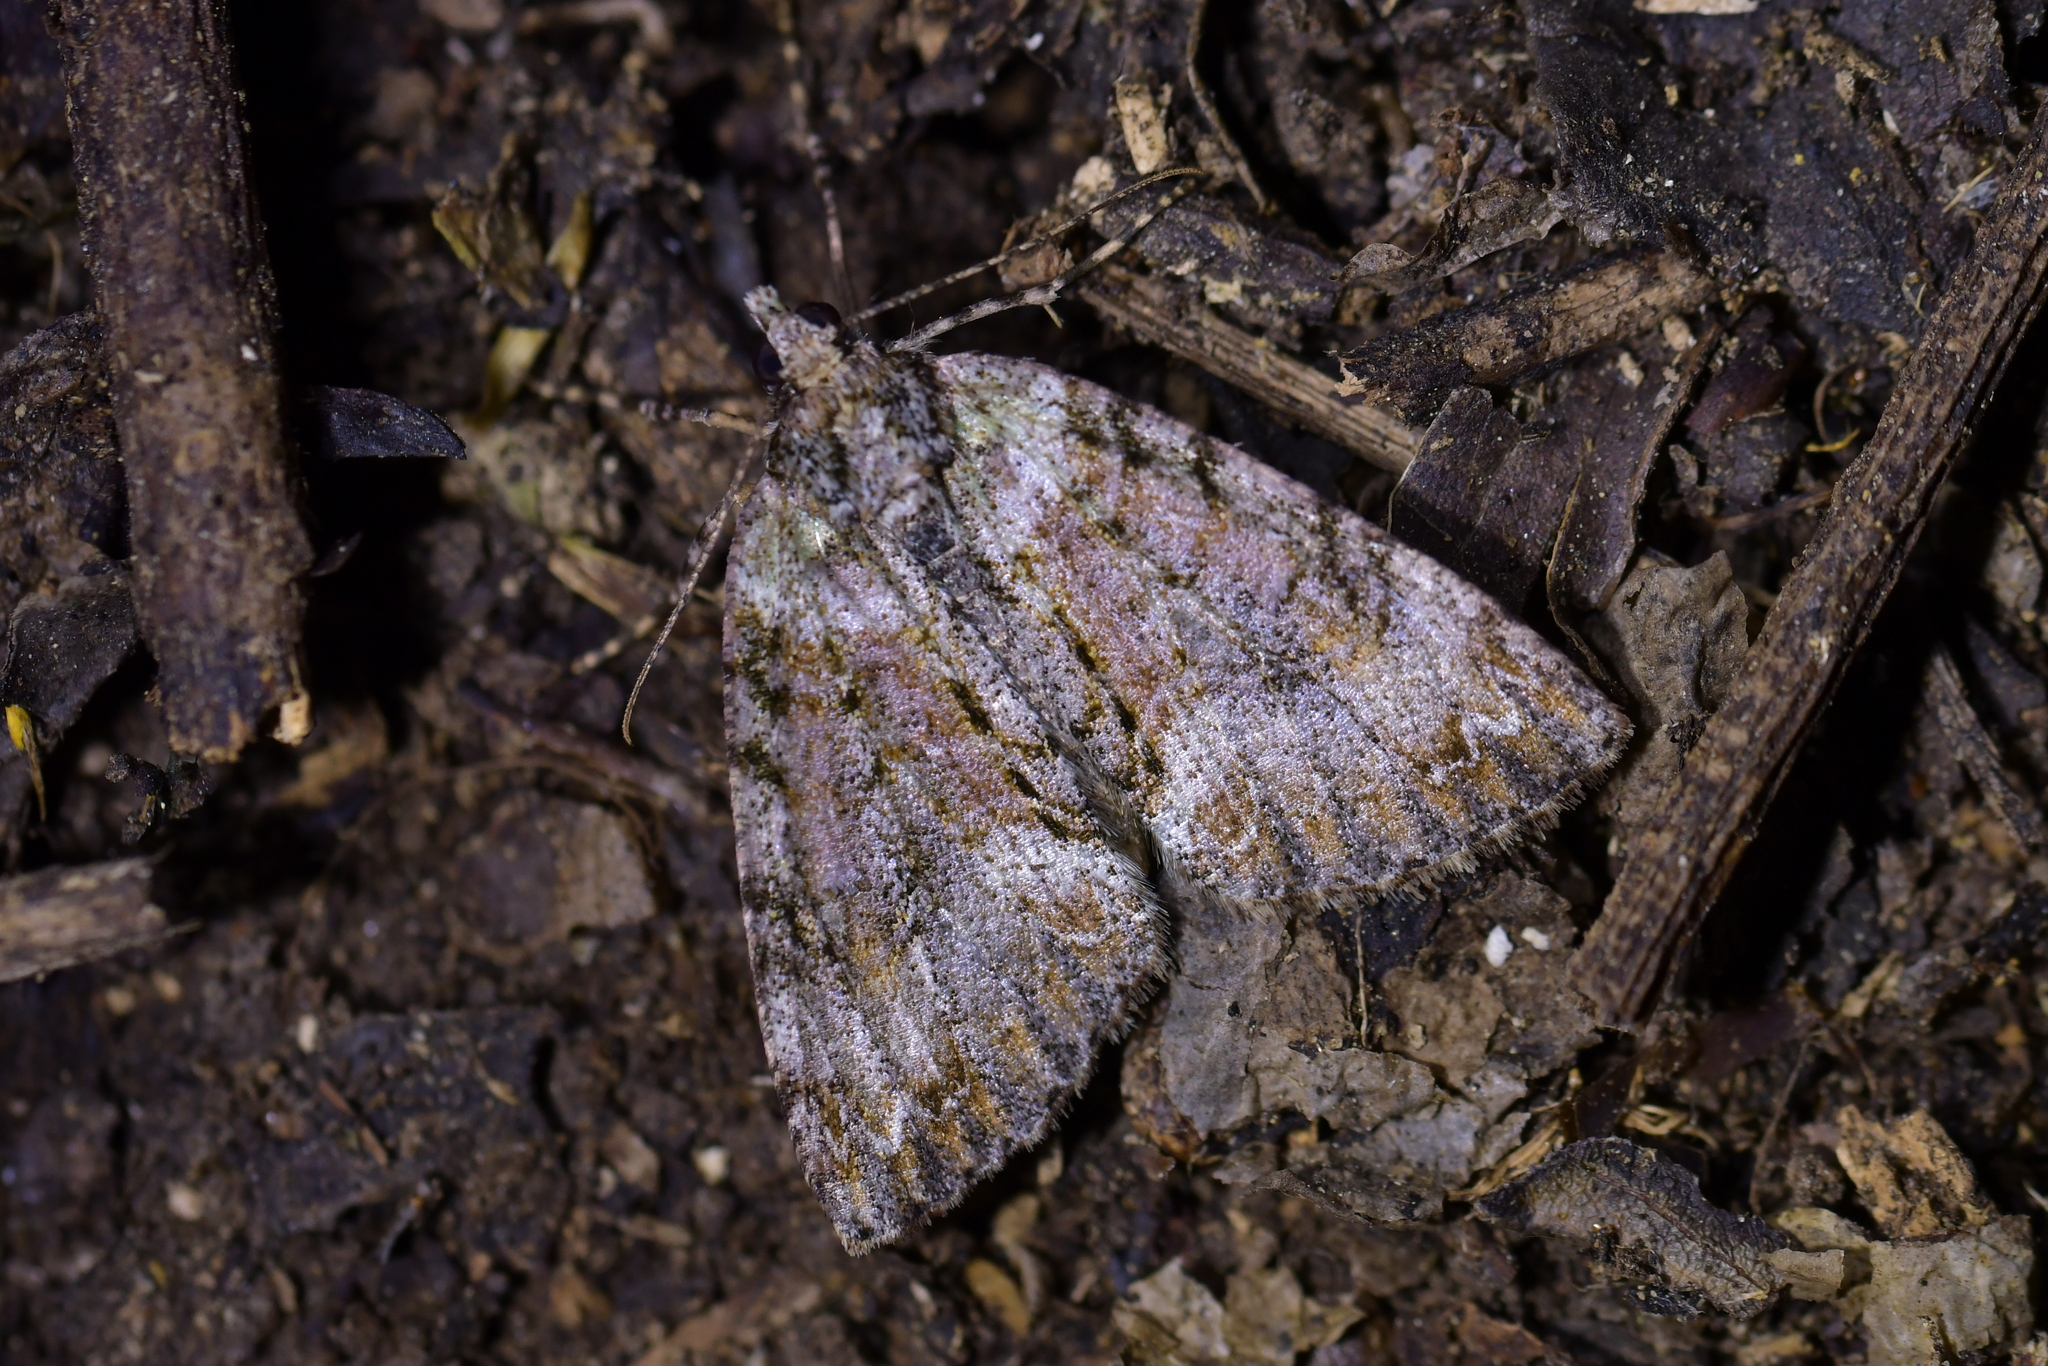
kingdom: Animalia
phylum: Arthropoda
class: Insecta
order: Lepidoptera
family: Geometridae
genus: Pseudocoremia
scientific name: Pseudocoremia suavis
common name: Common forest looper
